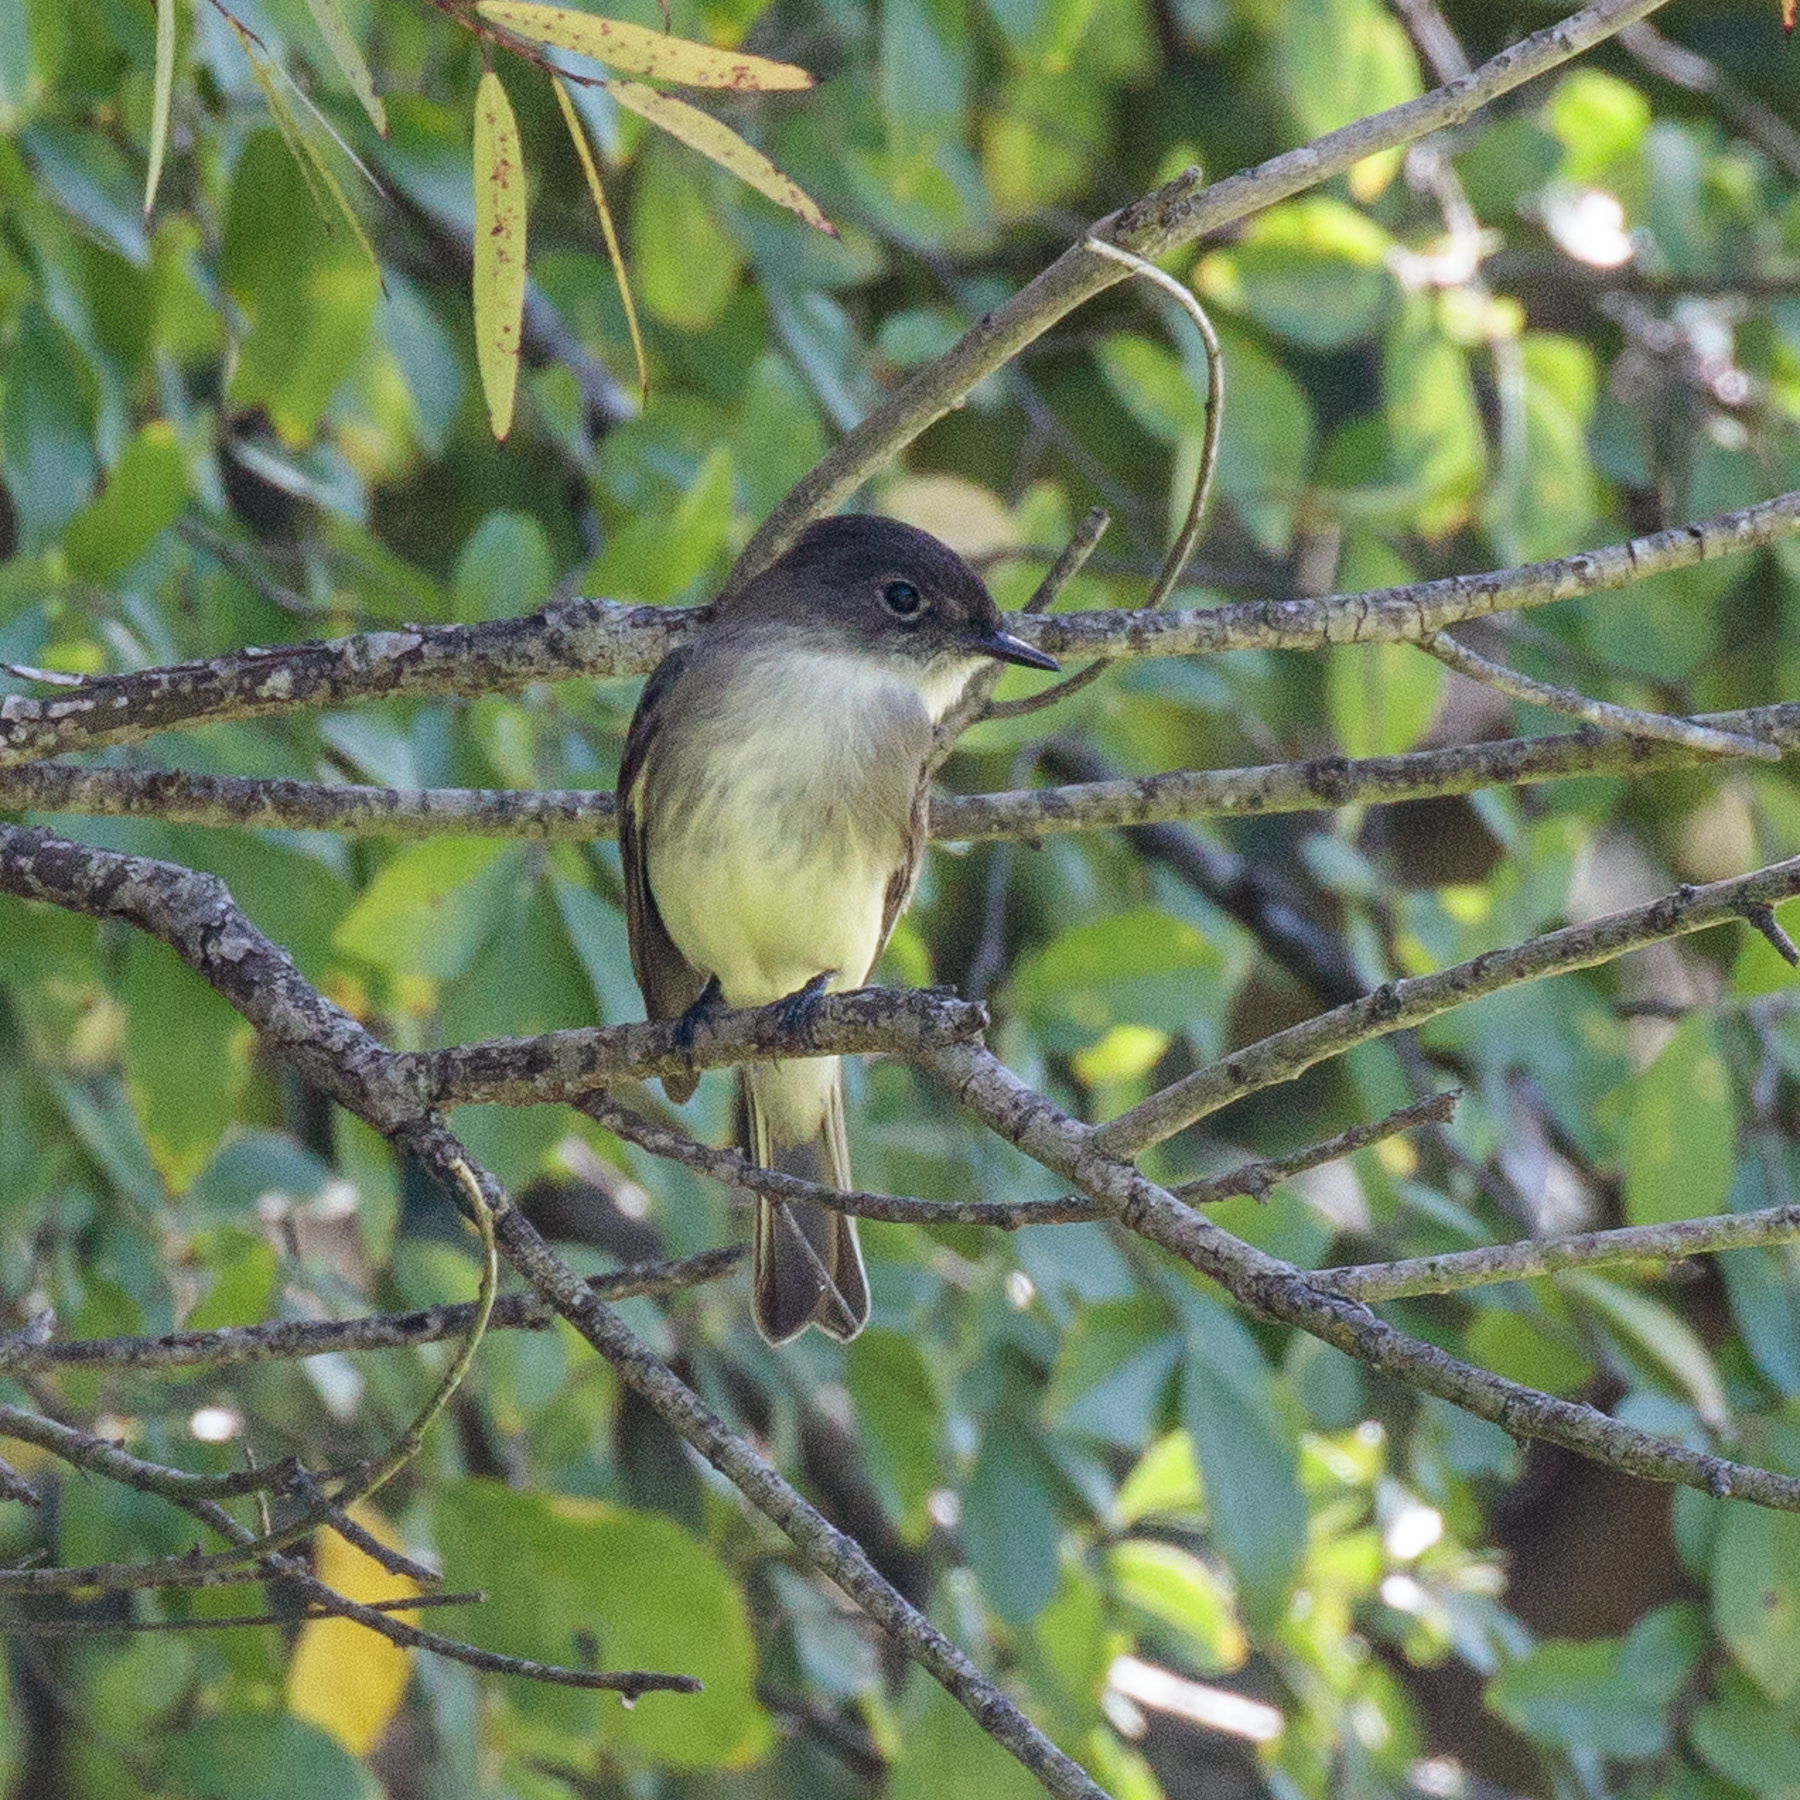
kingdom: Animalia
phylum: Chordata
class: Aves
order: Passeriformes
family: Tyrannidae
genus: Sayornis
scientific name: Sayornis phoebe
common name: Eastern phoebe
